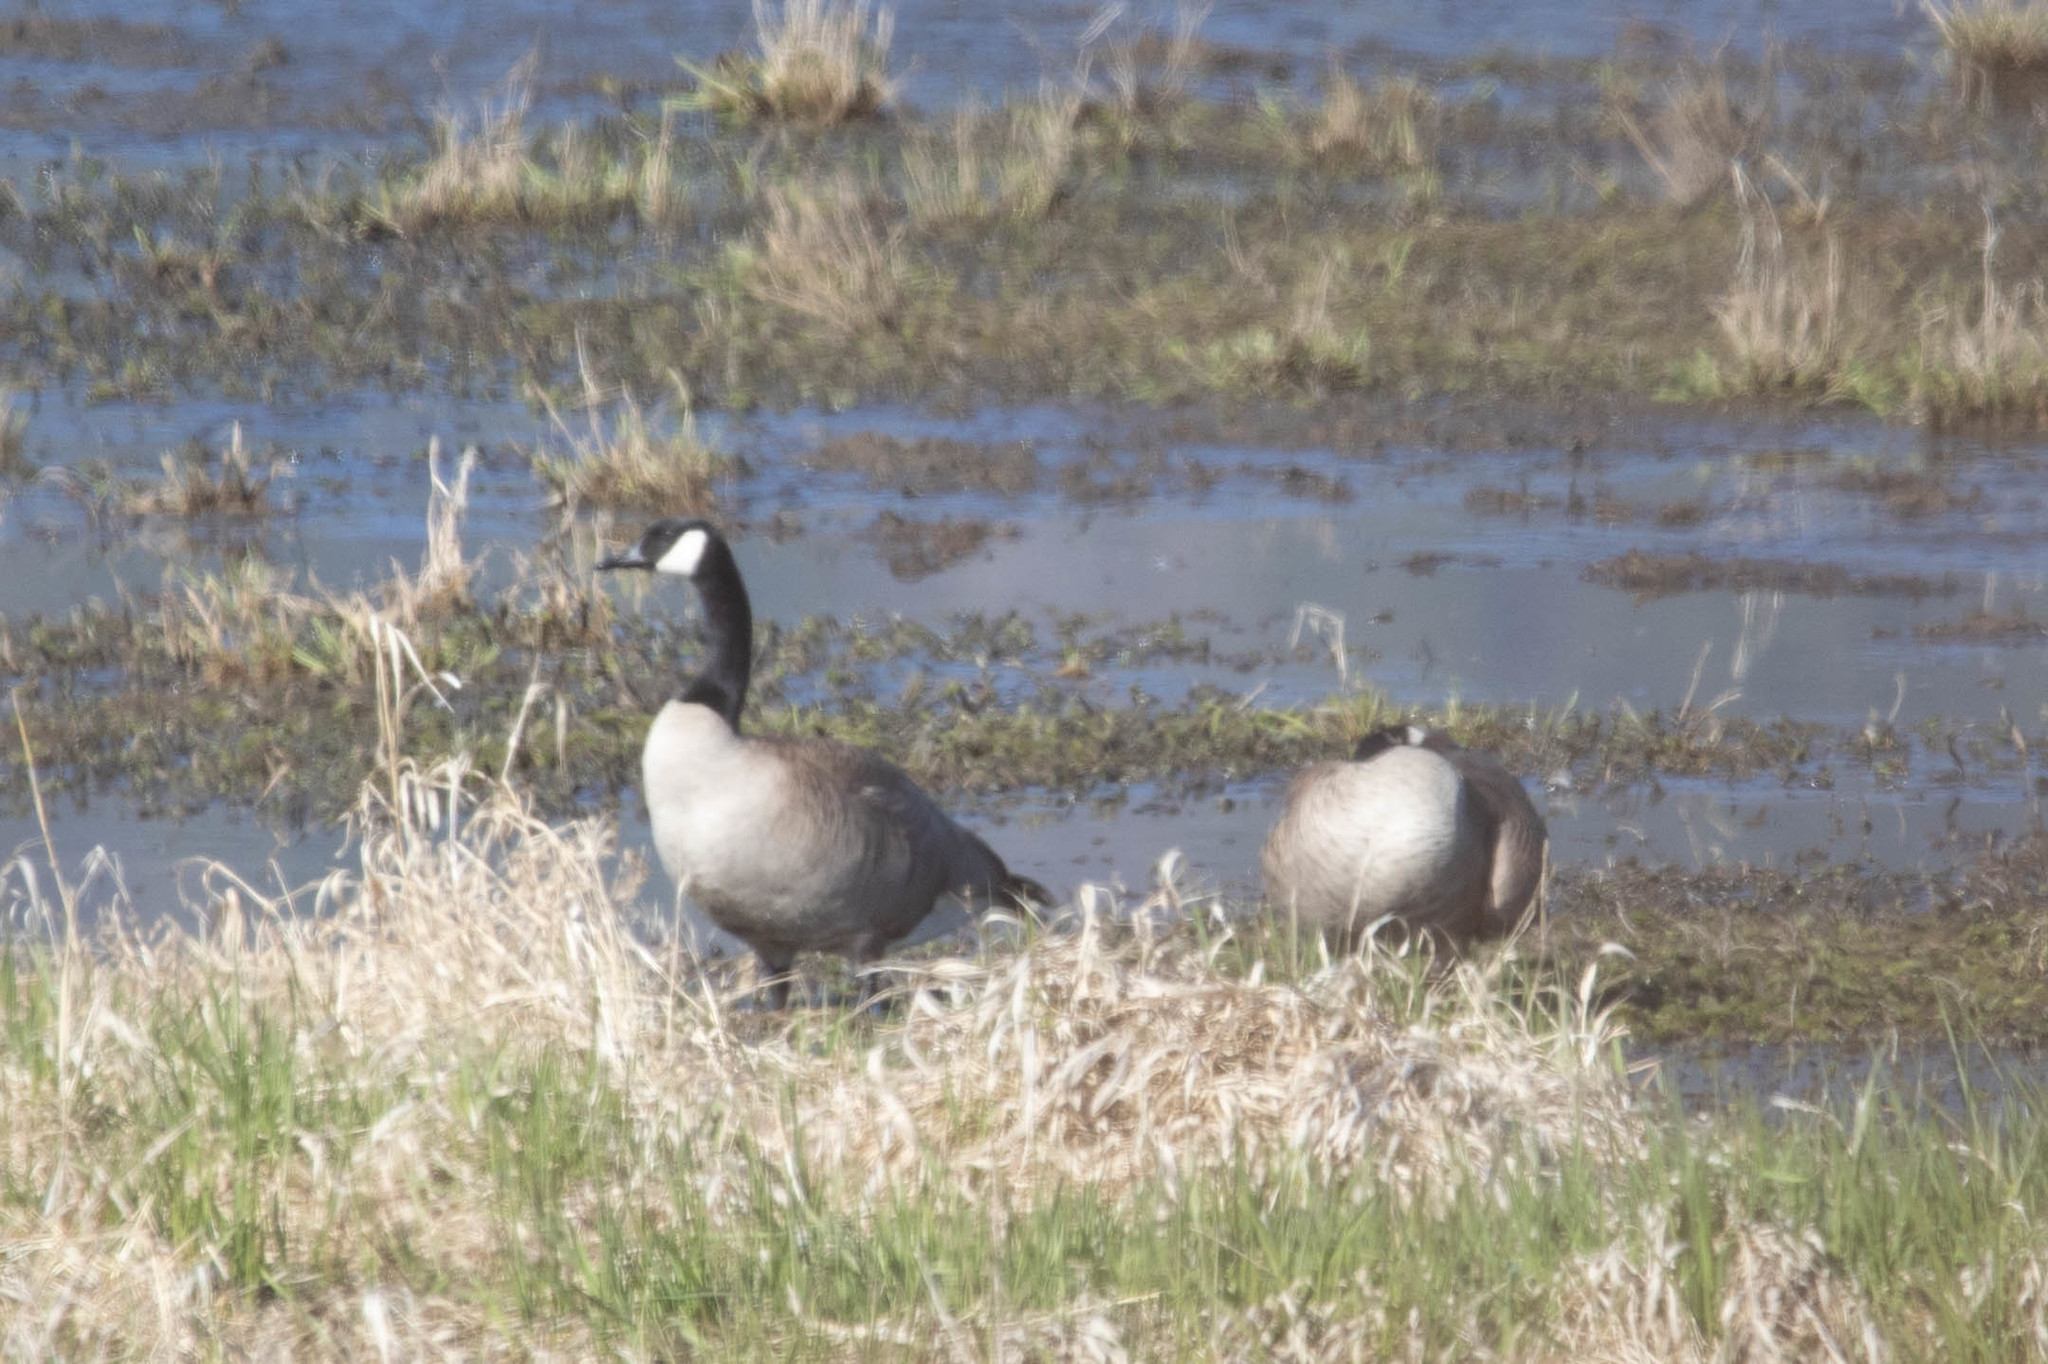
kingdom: Animalia
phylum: Chordata
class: Aves
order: Anseriformes
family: Anatidae
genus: Branta
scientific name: Branta canadensis
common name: Canada goose
